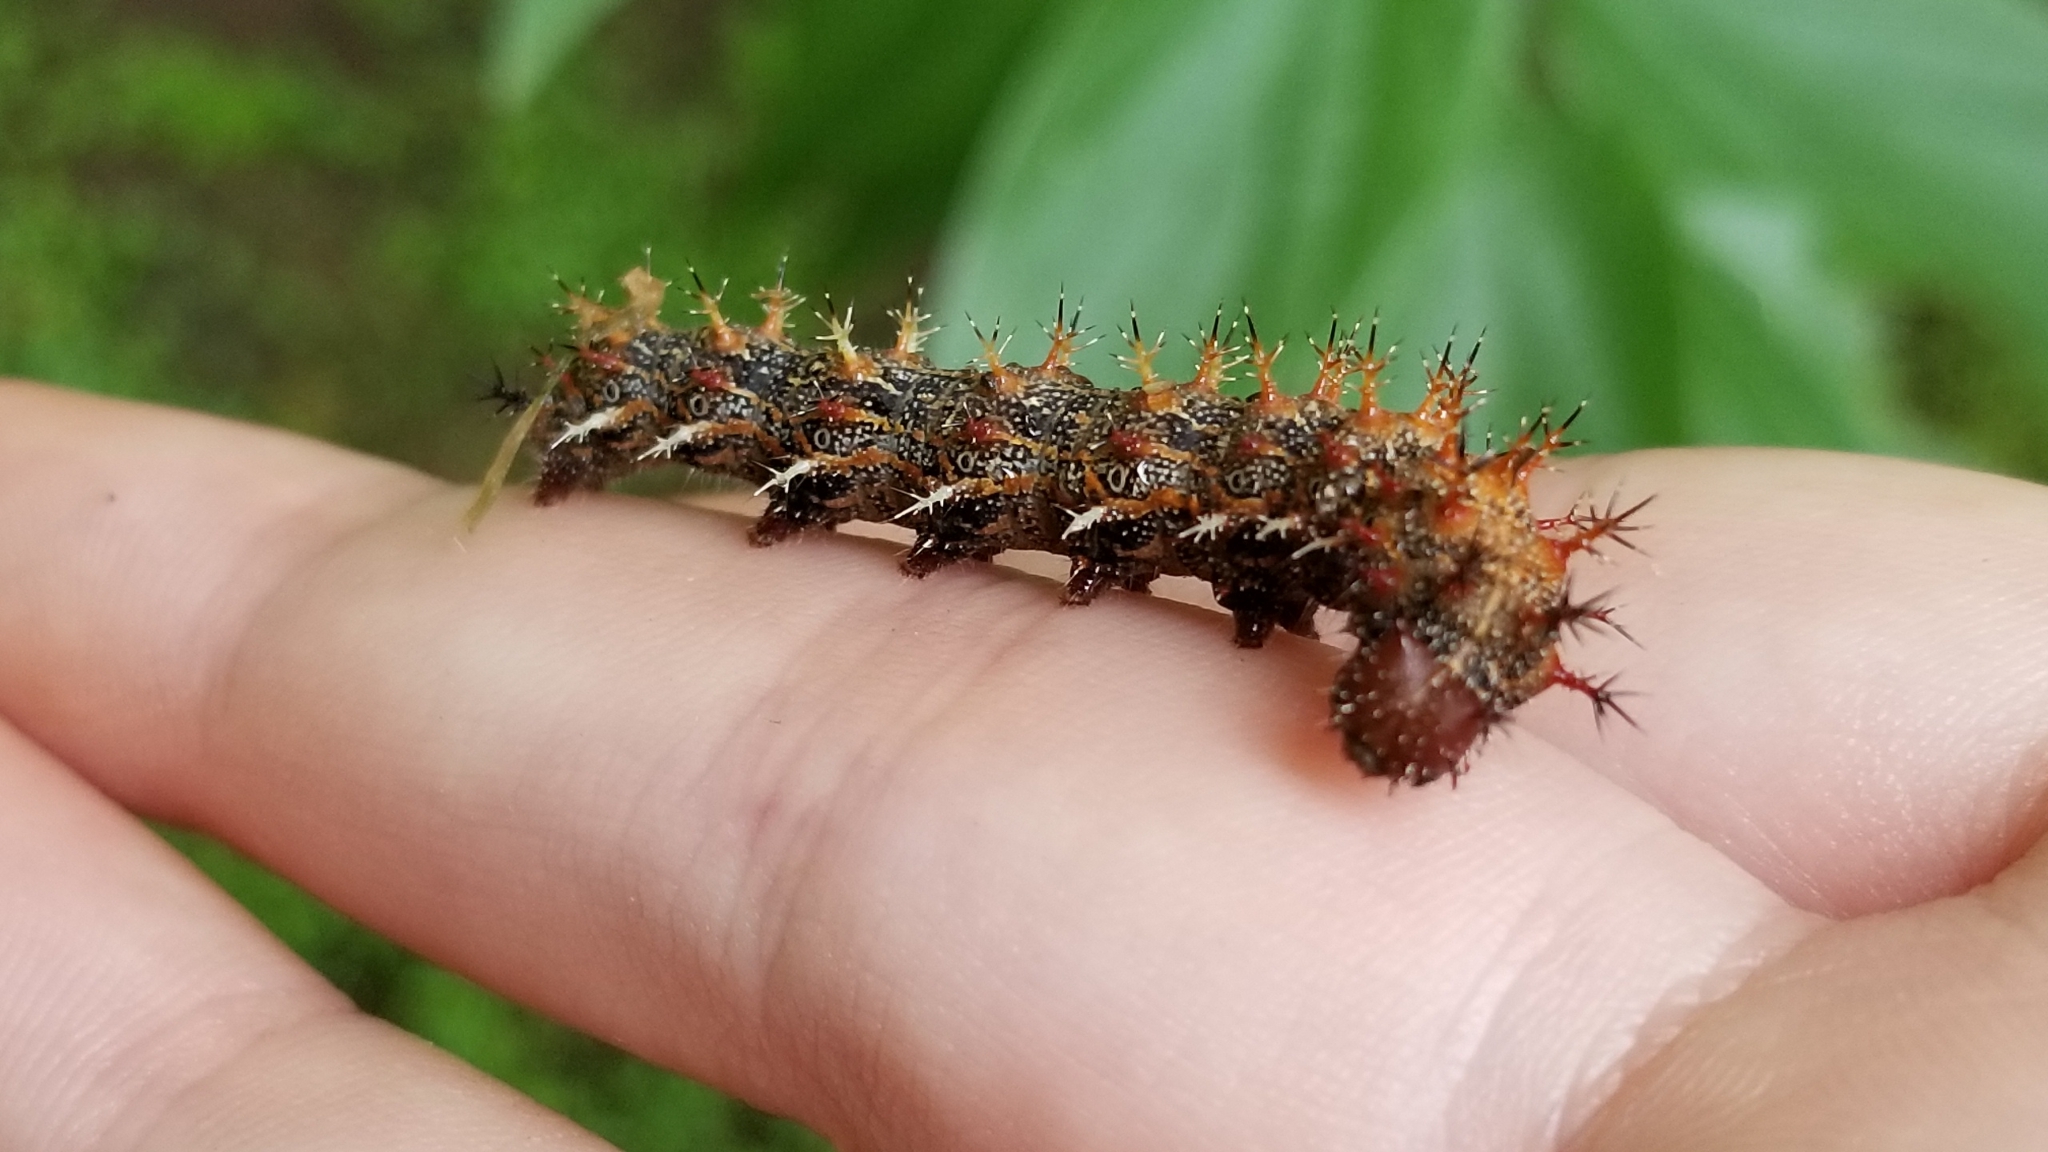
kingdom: Animalia
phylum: Arthropoda
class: Insecta
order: Lepidoptera
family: Nymphalidae
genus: Polygonia
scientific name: Polygonia interrogationis
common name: Question mark
